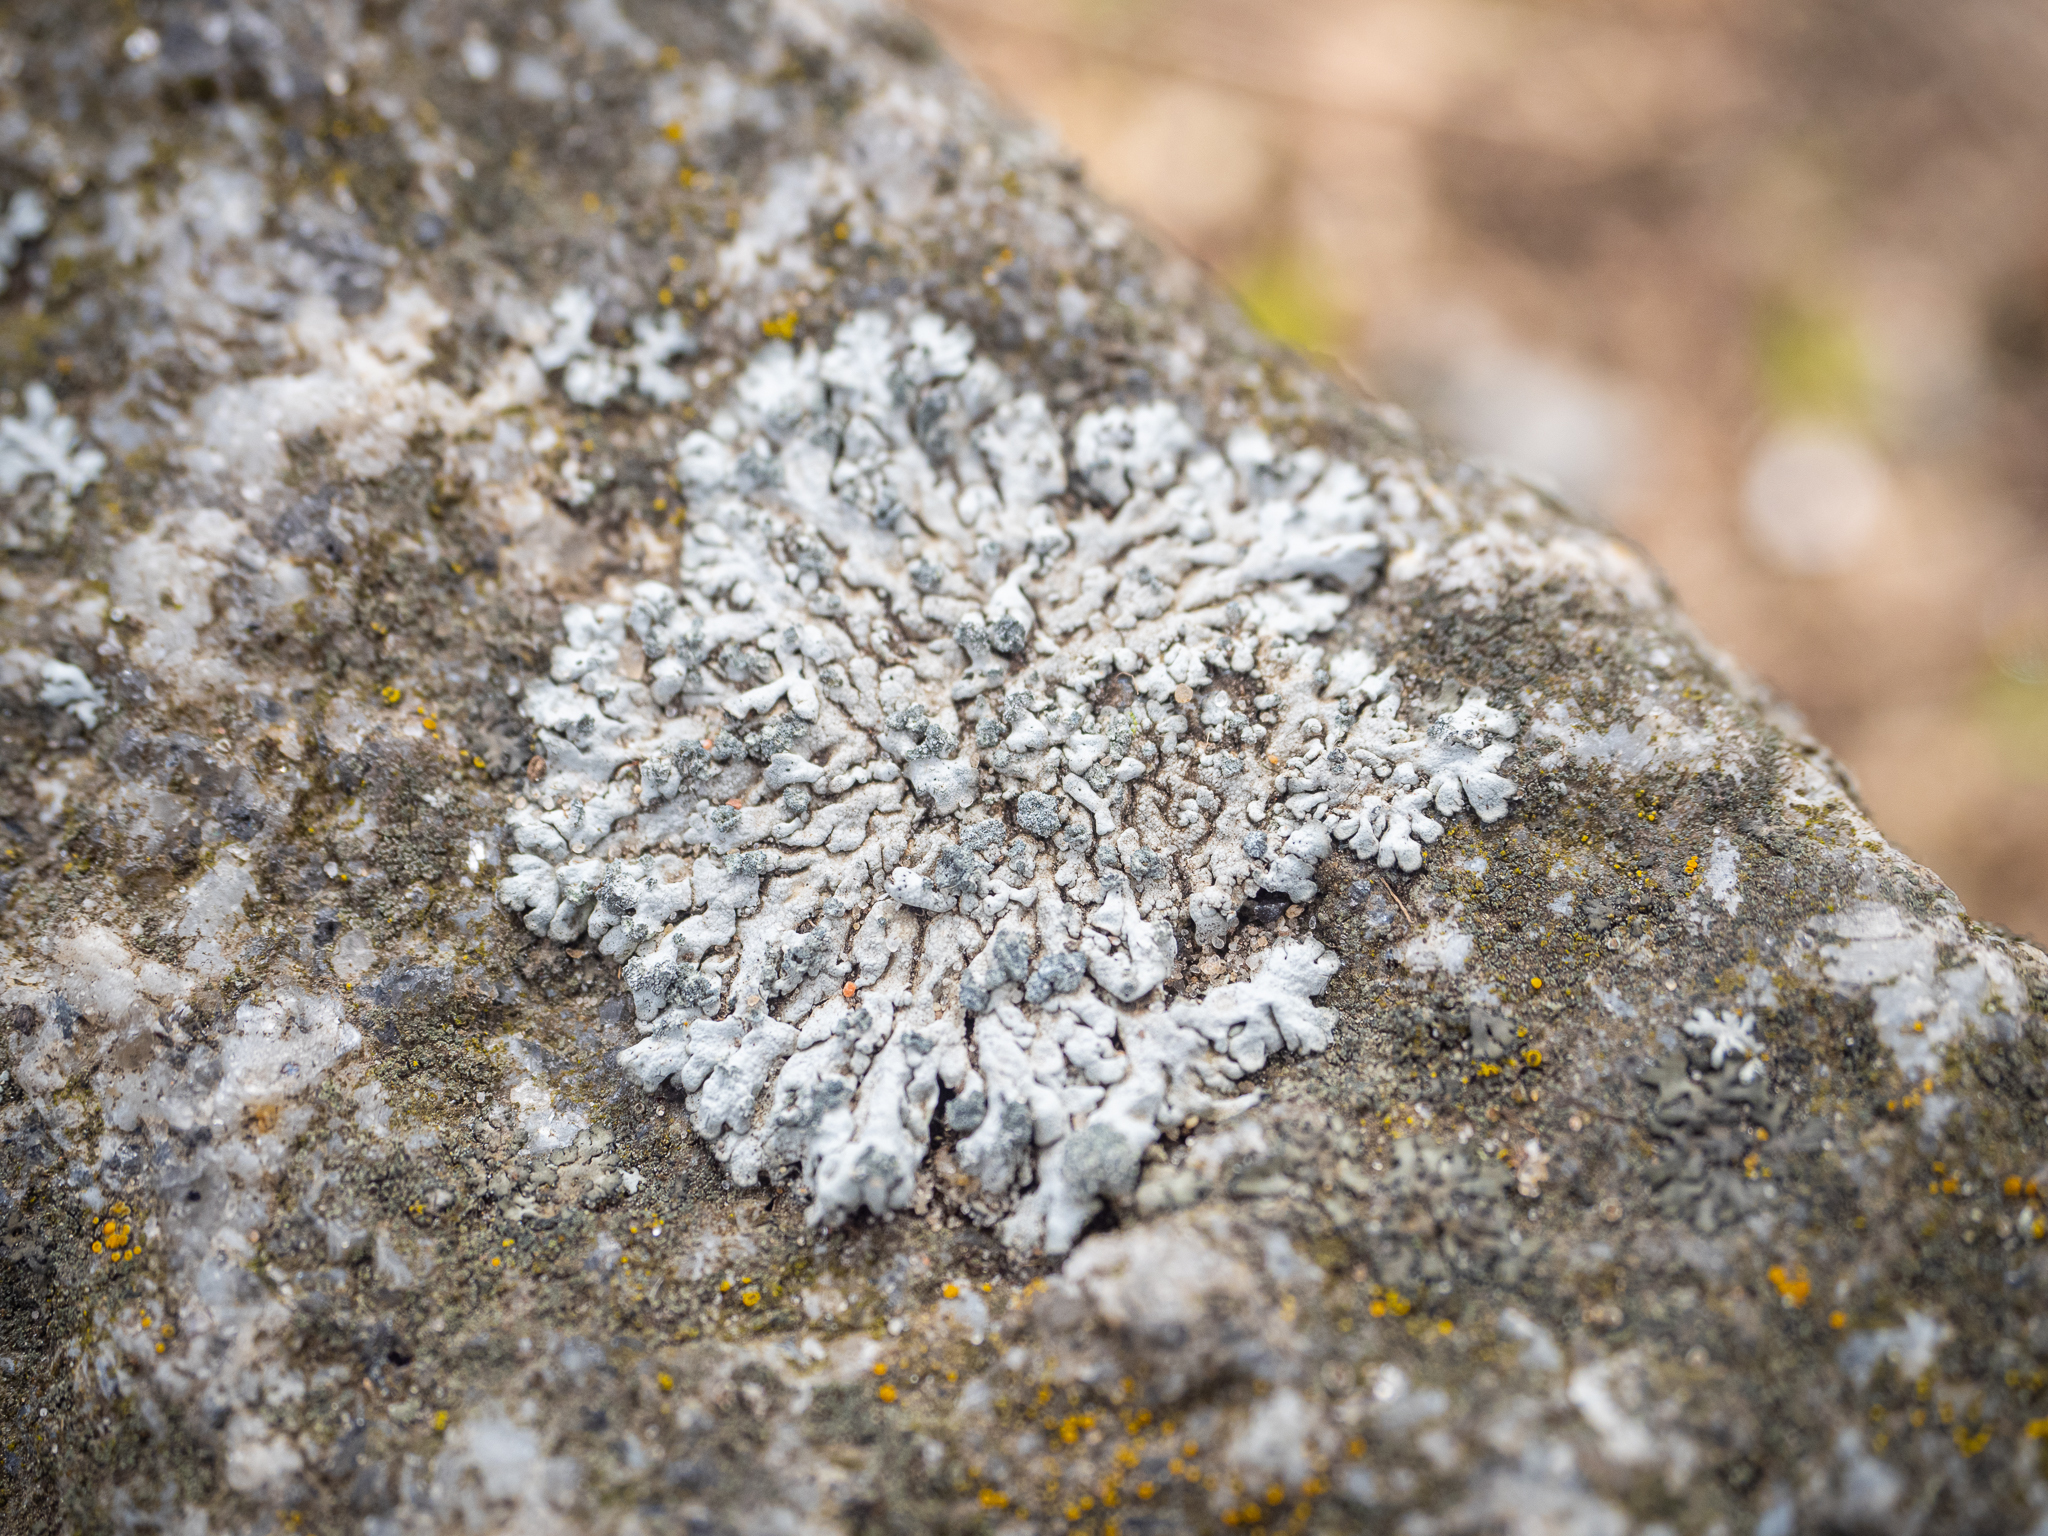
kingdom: Fungi
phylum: Ascomycota
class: Lecanoromycetes
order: Caliciales
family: Physciaceae
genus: Physcia
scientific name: Physcia caesia
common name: Blue-gray rosette lichen
